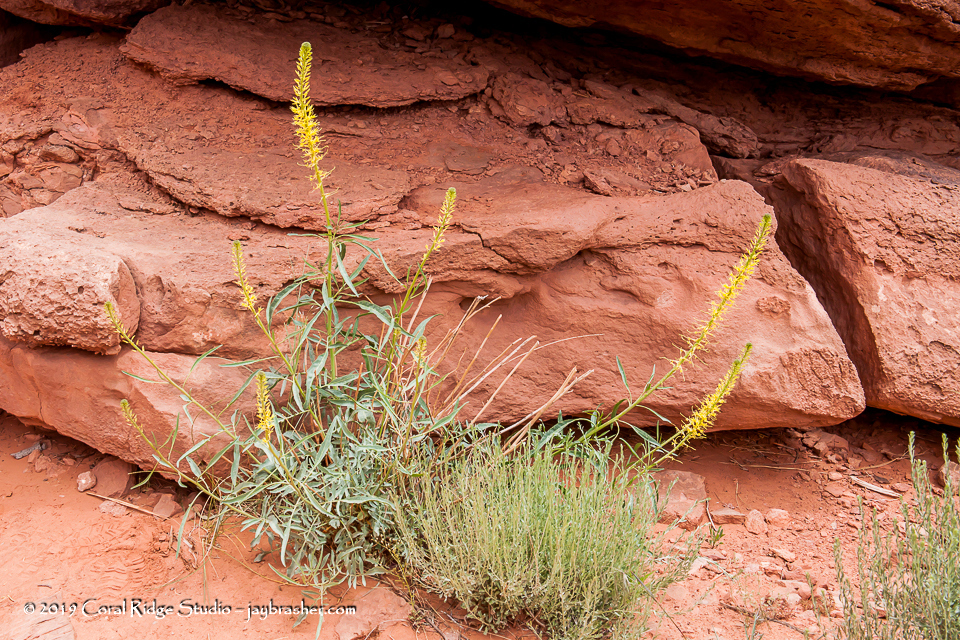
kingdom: Plantae
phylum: Tracheophyta
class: Magnoliopsida
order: Brassicales
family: Brassicaceae
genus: Stanleya
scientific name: Stanleya pinnata
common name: Prince's-plume
